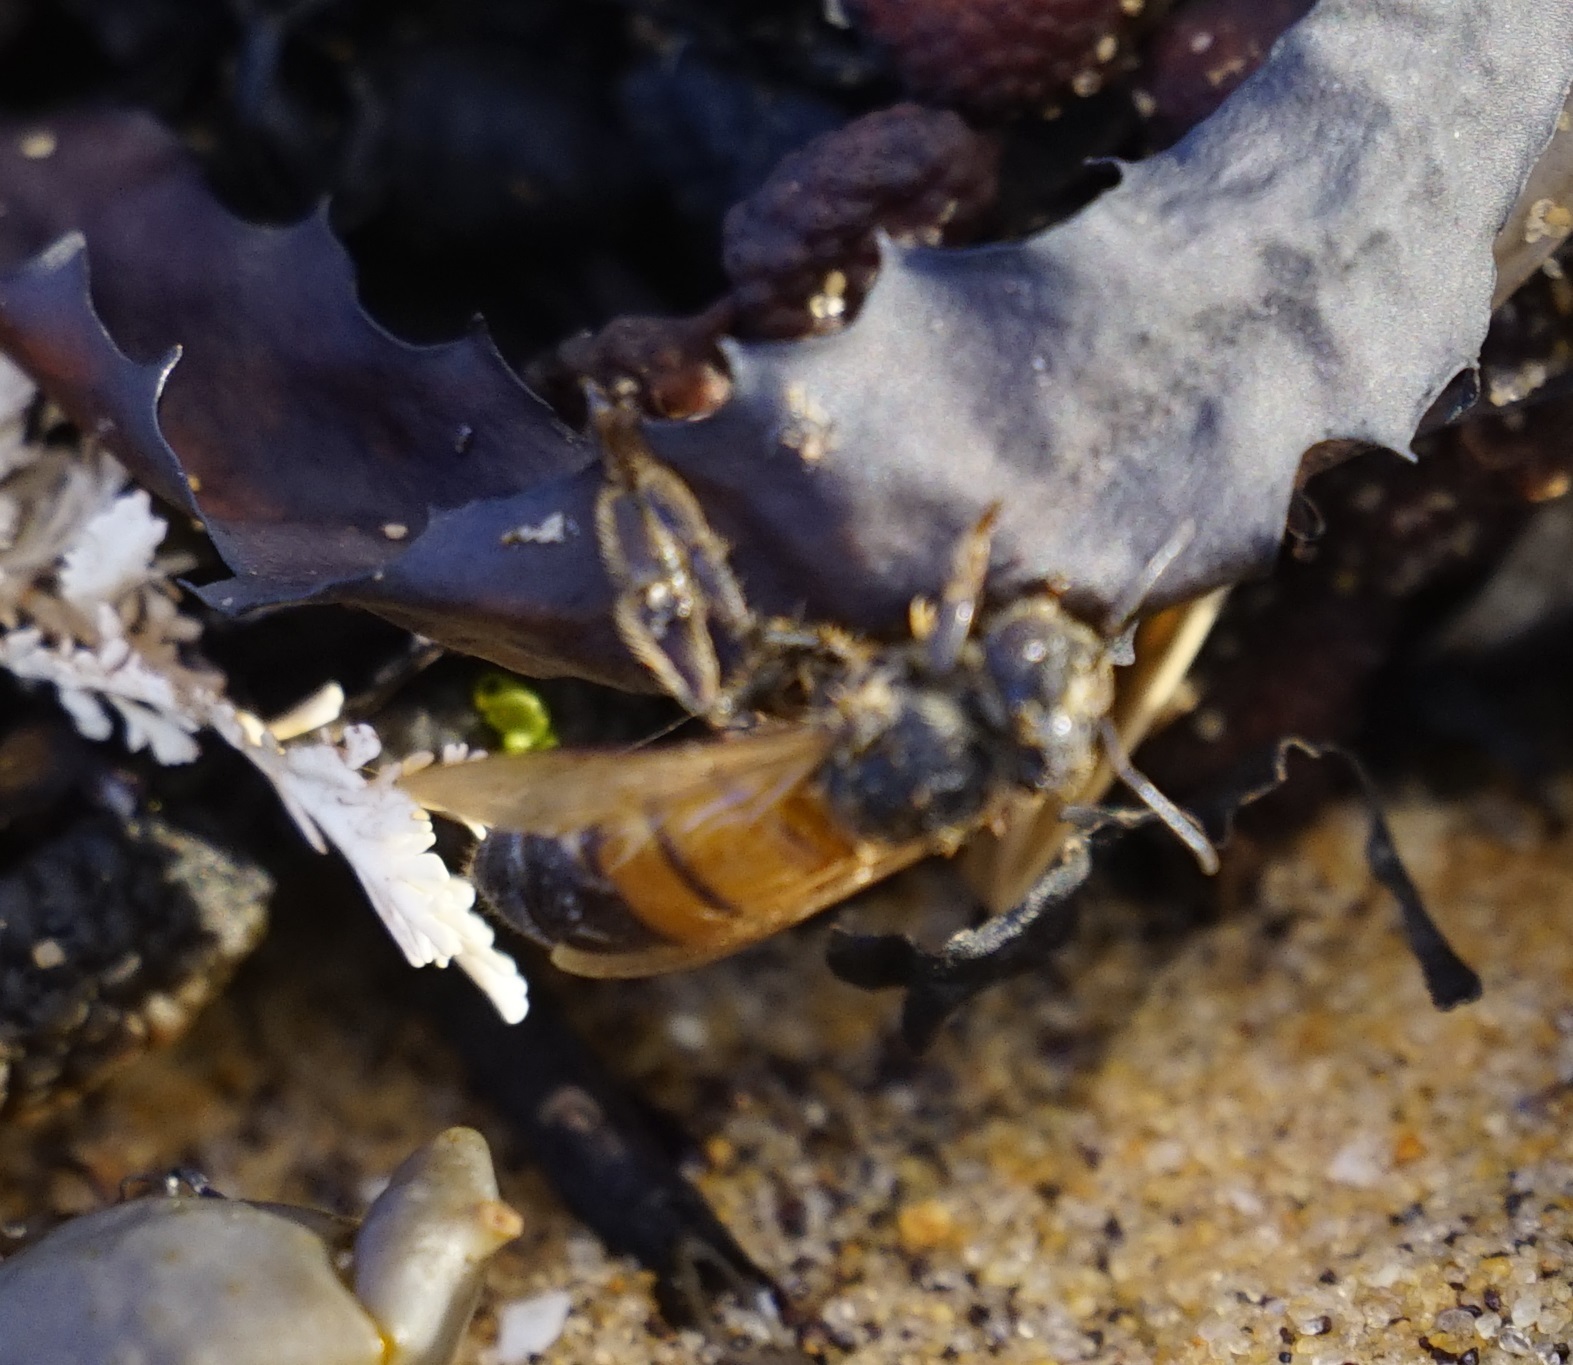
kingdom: Animalia
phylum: Arthropoda
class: Insecta
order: Hymenoptera
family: Apidae
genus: Apis
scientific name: Apis mellifera
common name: Honey bee
